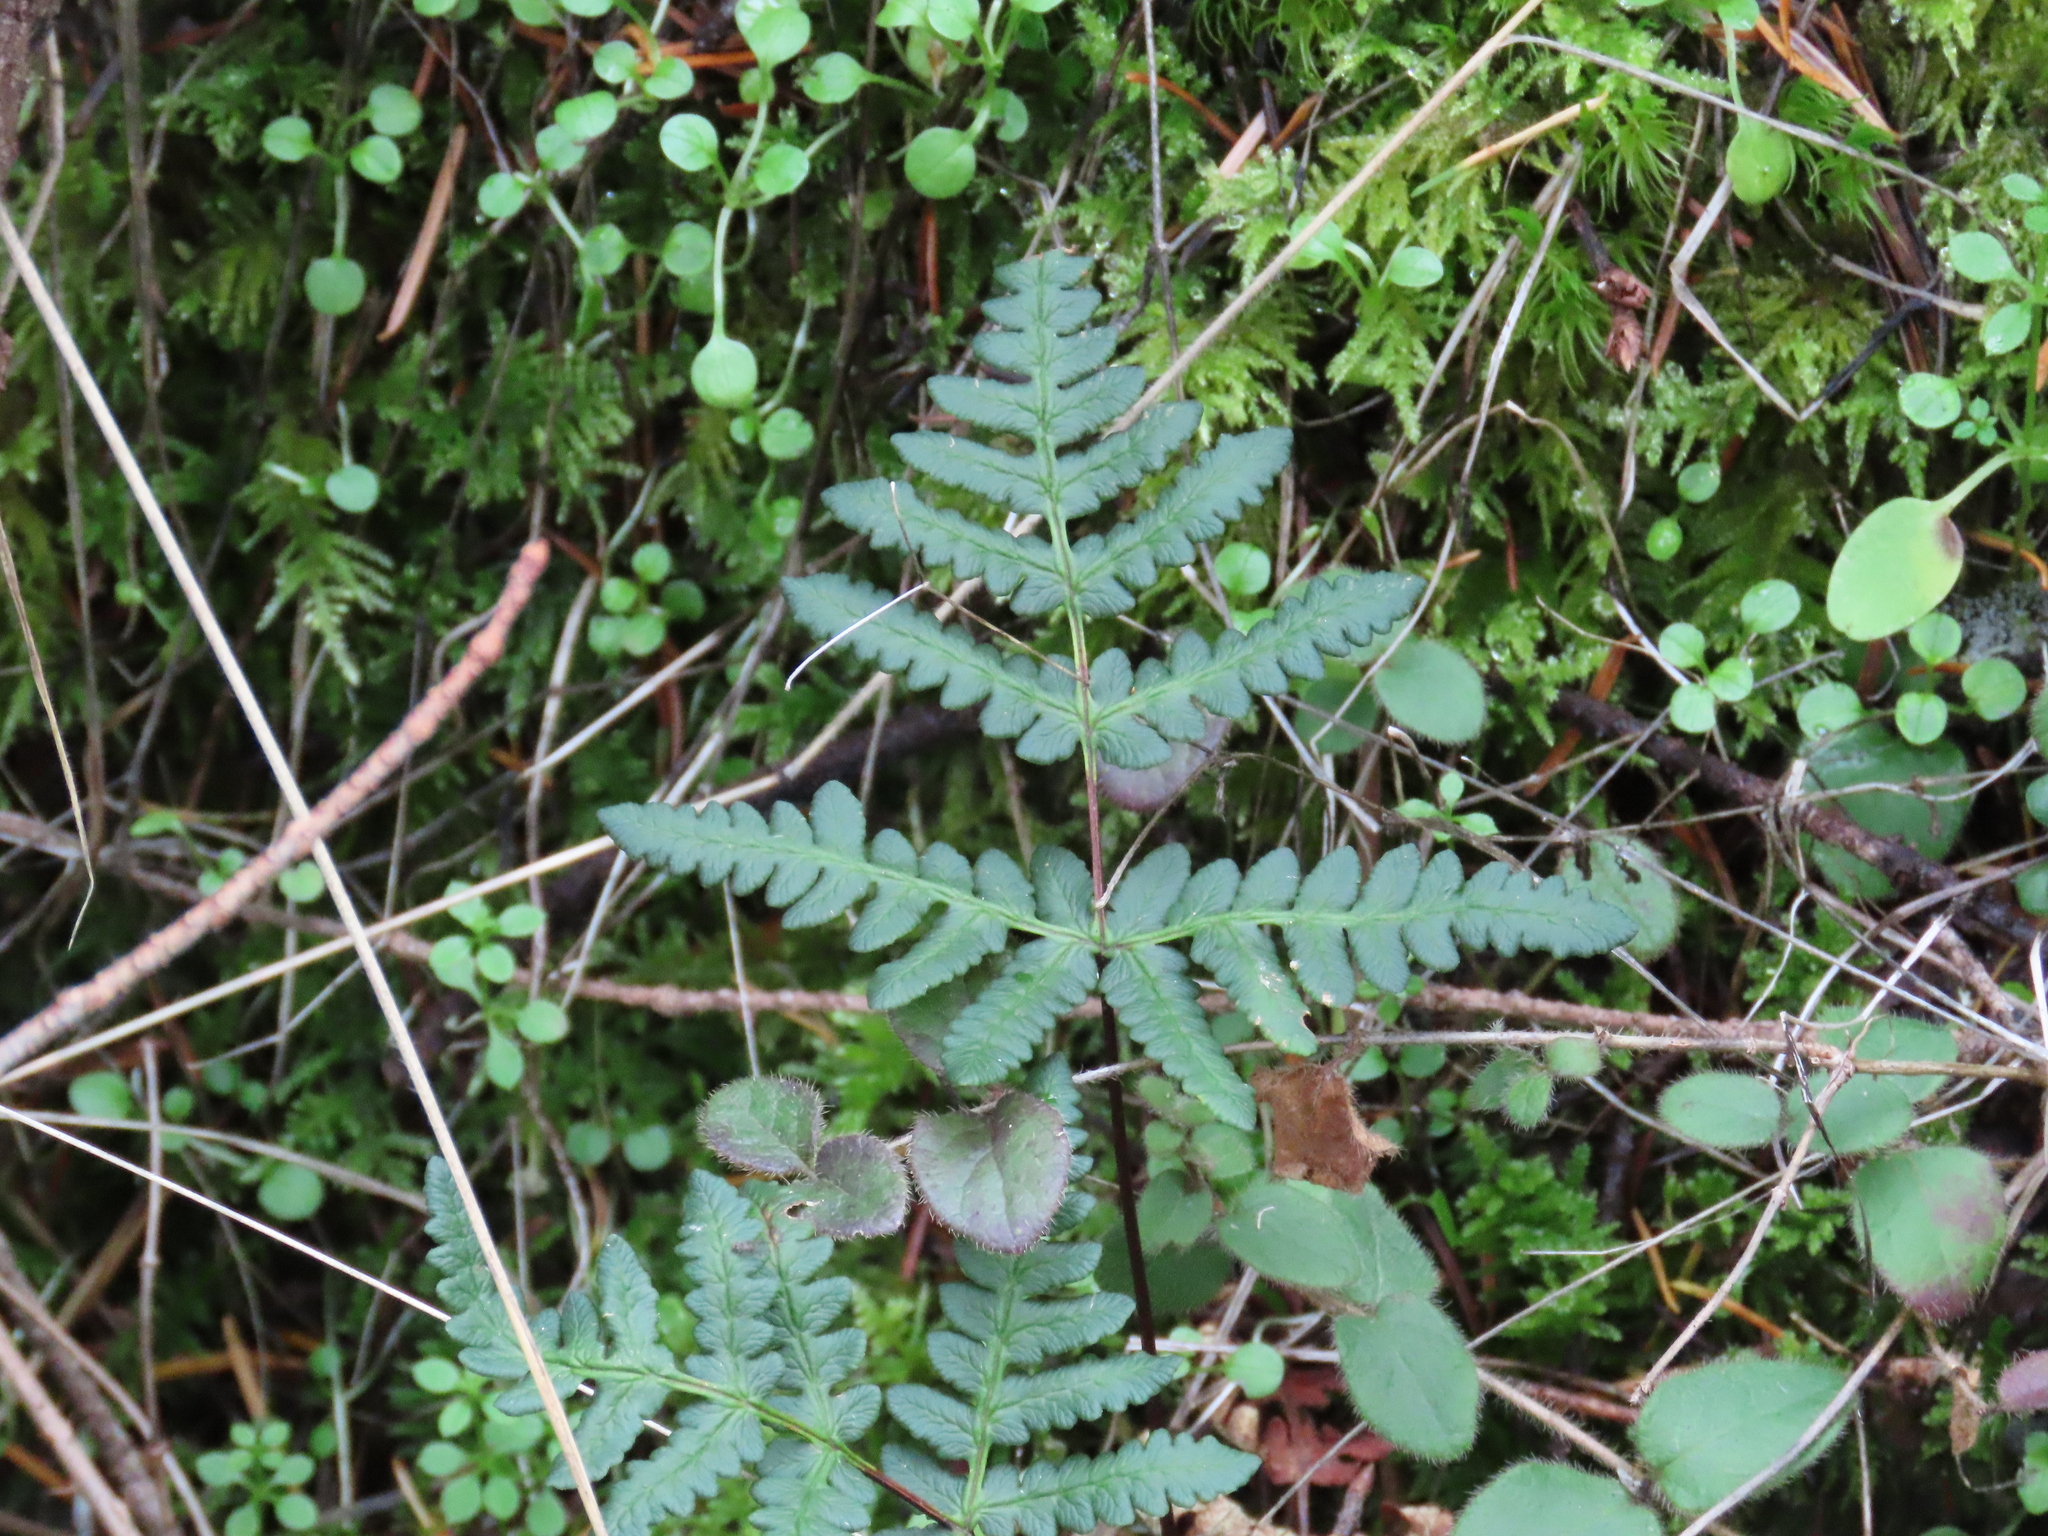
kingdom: Plantae
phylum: Tracheophyta
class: Polypodiopsida
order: Polypodiales
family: Pteridaceae
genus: Pentagramma
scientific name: Pentagramma triangularis
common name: Gold fern
